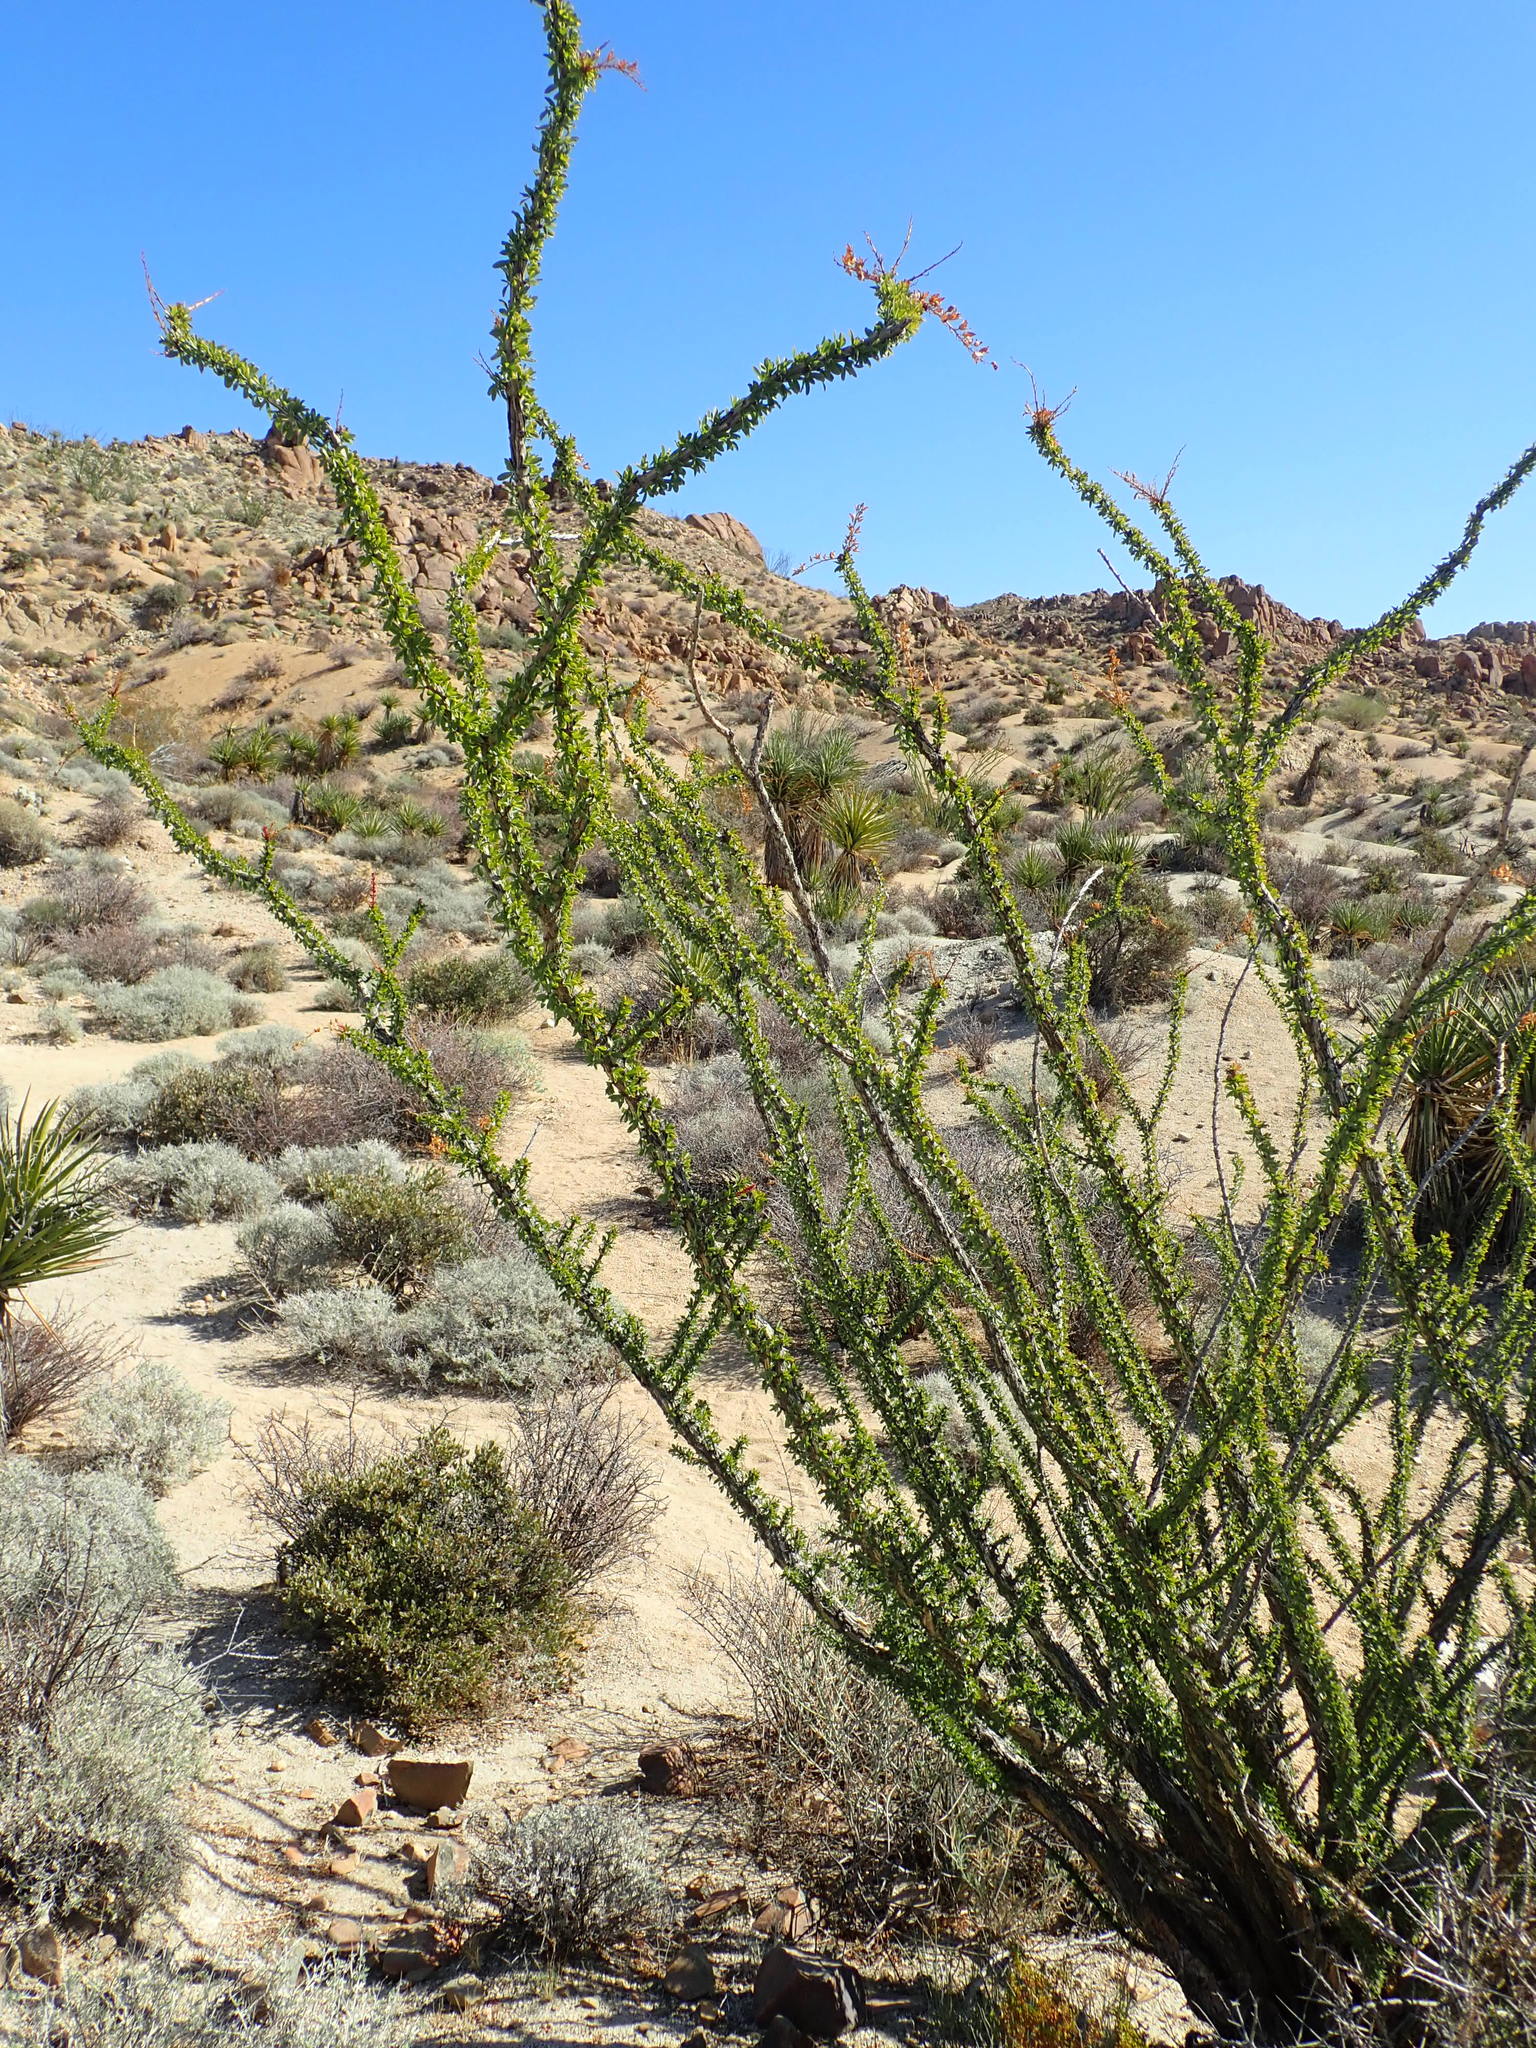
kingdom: Plantae
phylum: Tracheophyta
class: Magnoliopsida
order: Ericales
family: Fouquieriaceae
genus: Fouquieria
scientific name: Fouquieria splendens
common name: Vine-cactus
